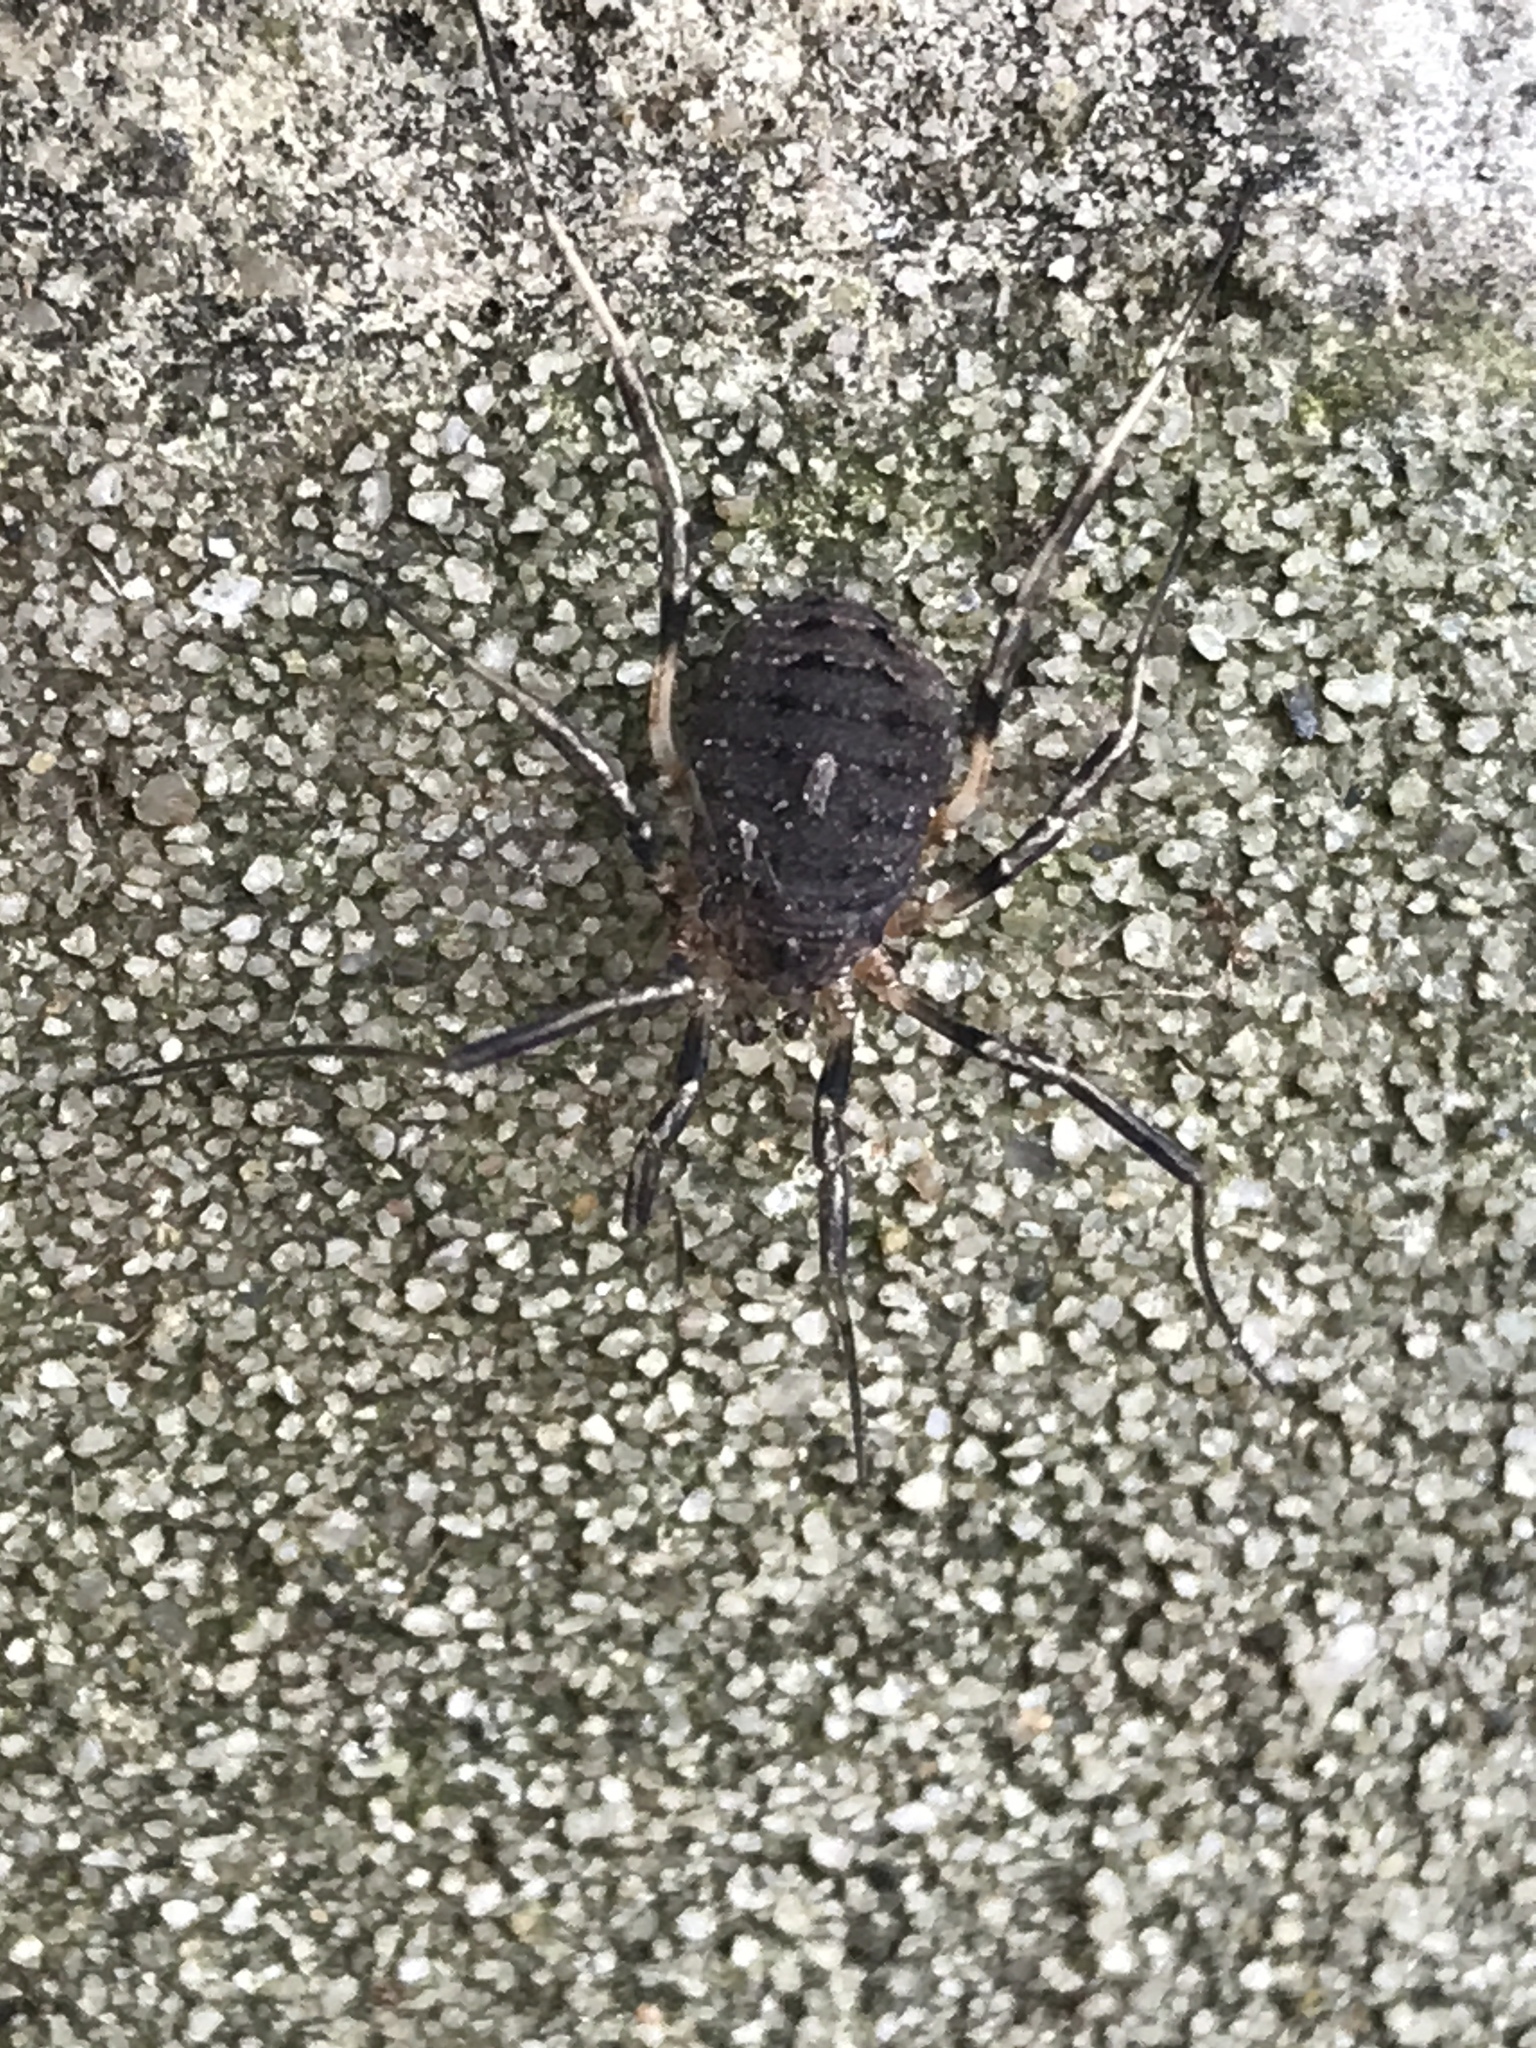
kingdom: Animalia
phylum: Arthropoda
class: Arachnida
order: Opiliones
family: Sclerosomatidae
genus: Eumesosoma
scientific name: Eumesosoma roeweri
